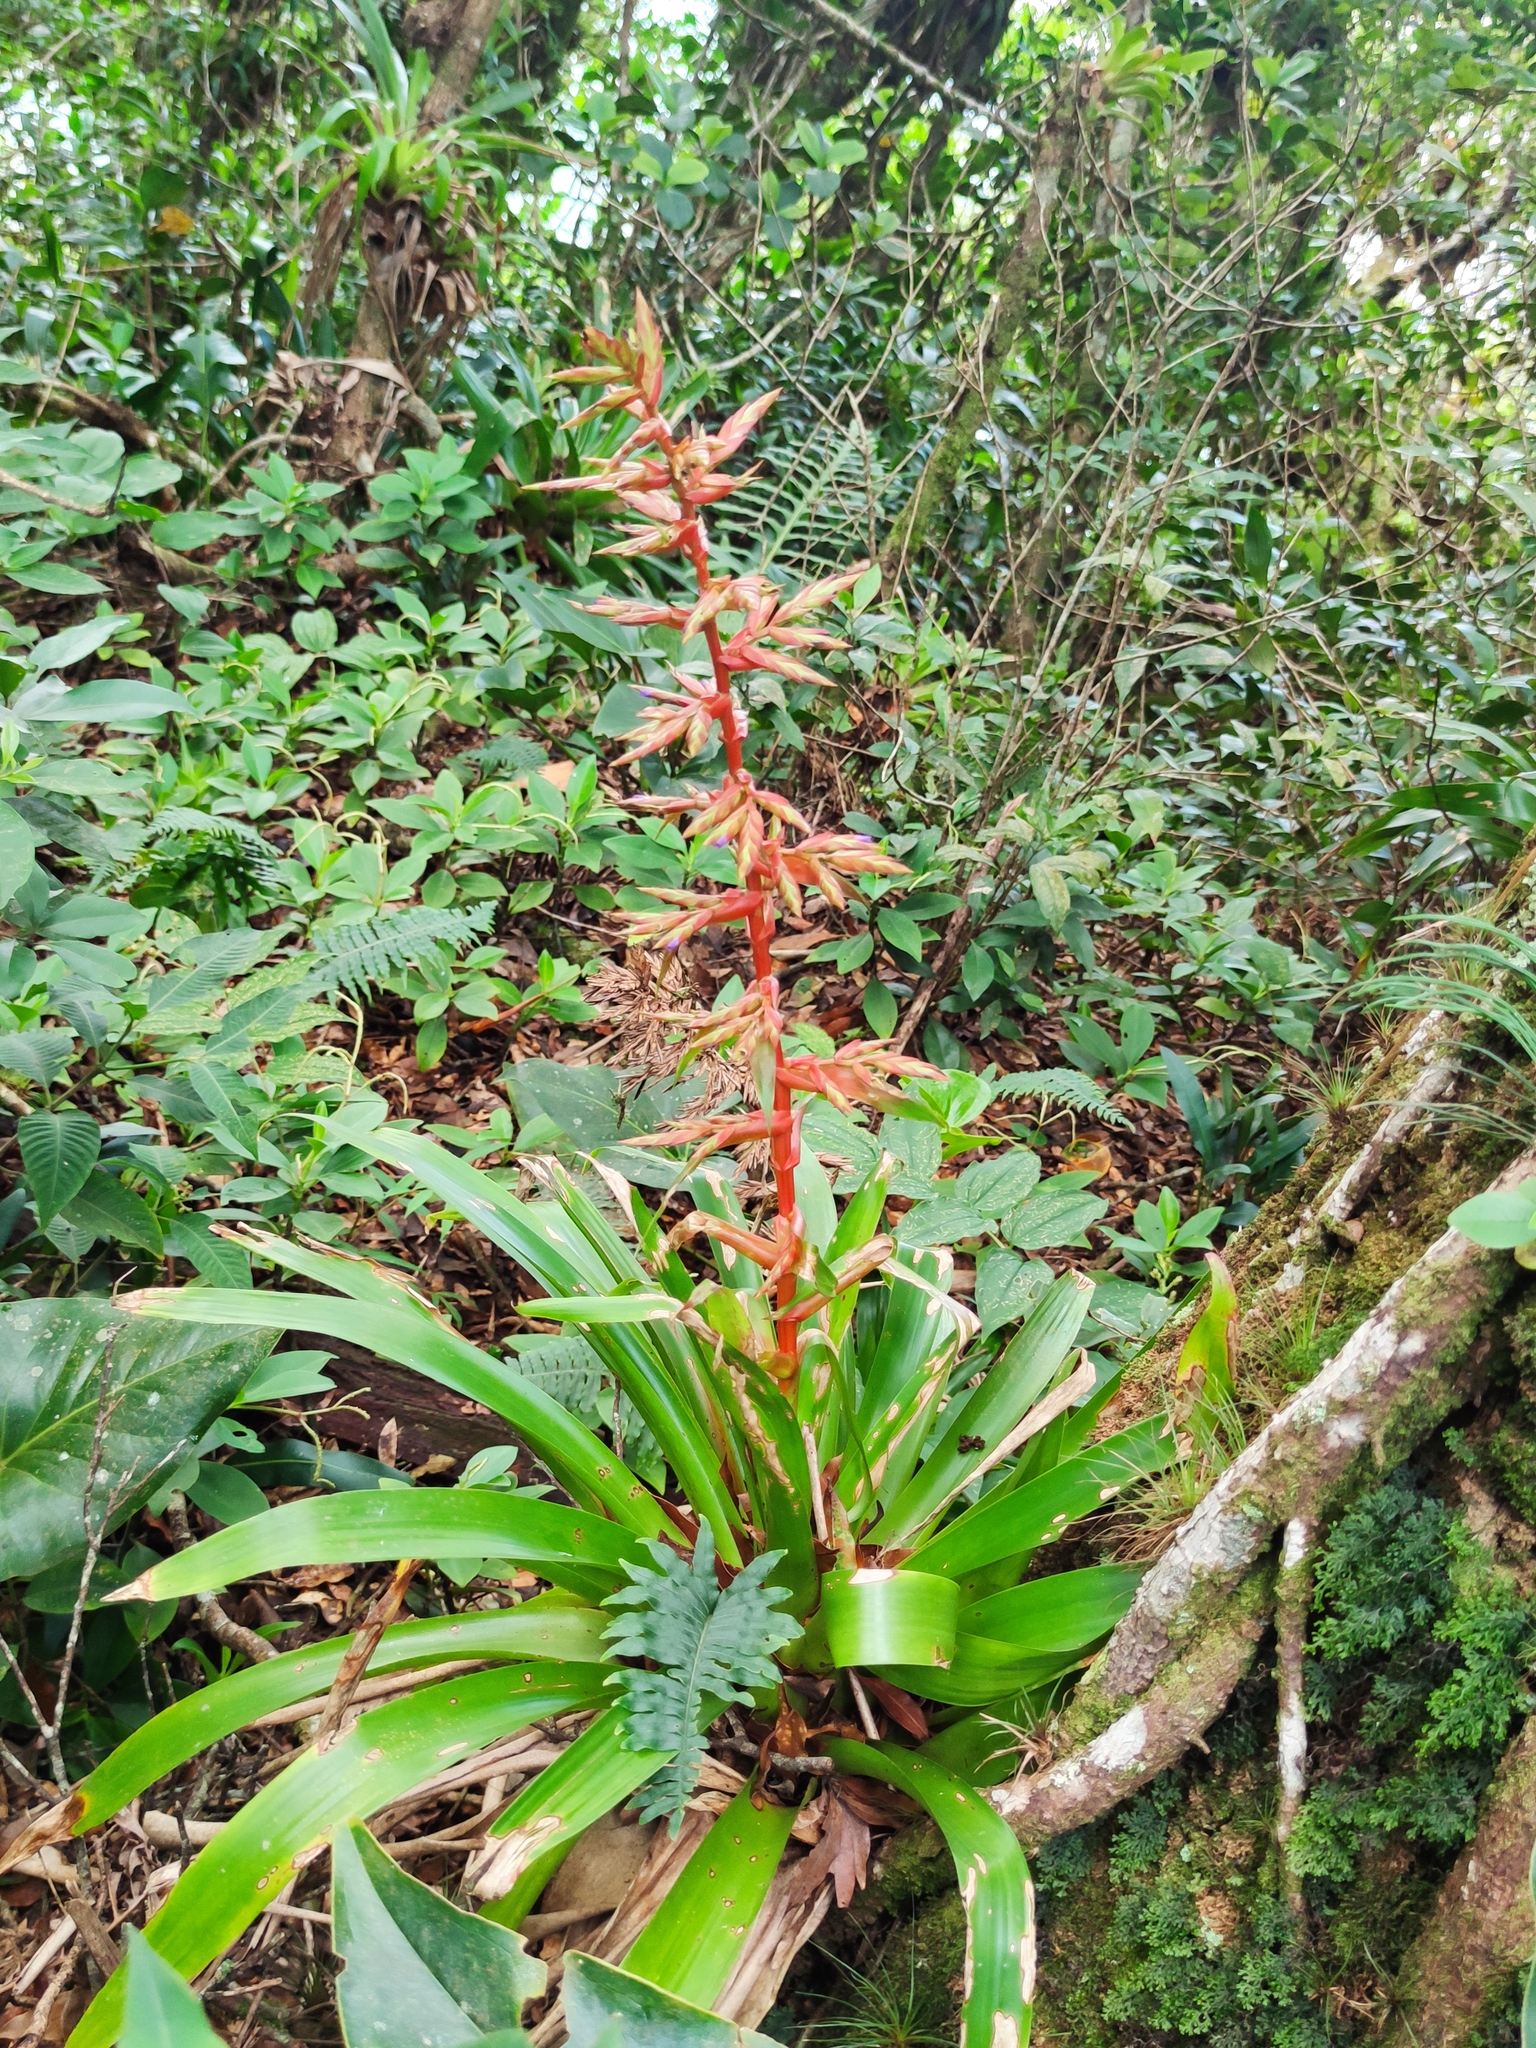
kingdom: Plantae
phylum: Tracheophyta
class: Liliopsida
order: Poales
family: Bromeliaceae
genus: Tillandsia
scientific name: Tillandsia guatemalensis
